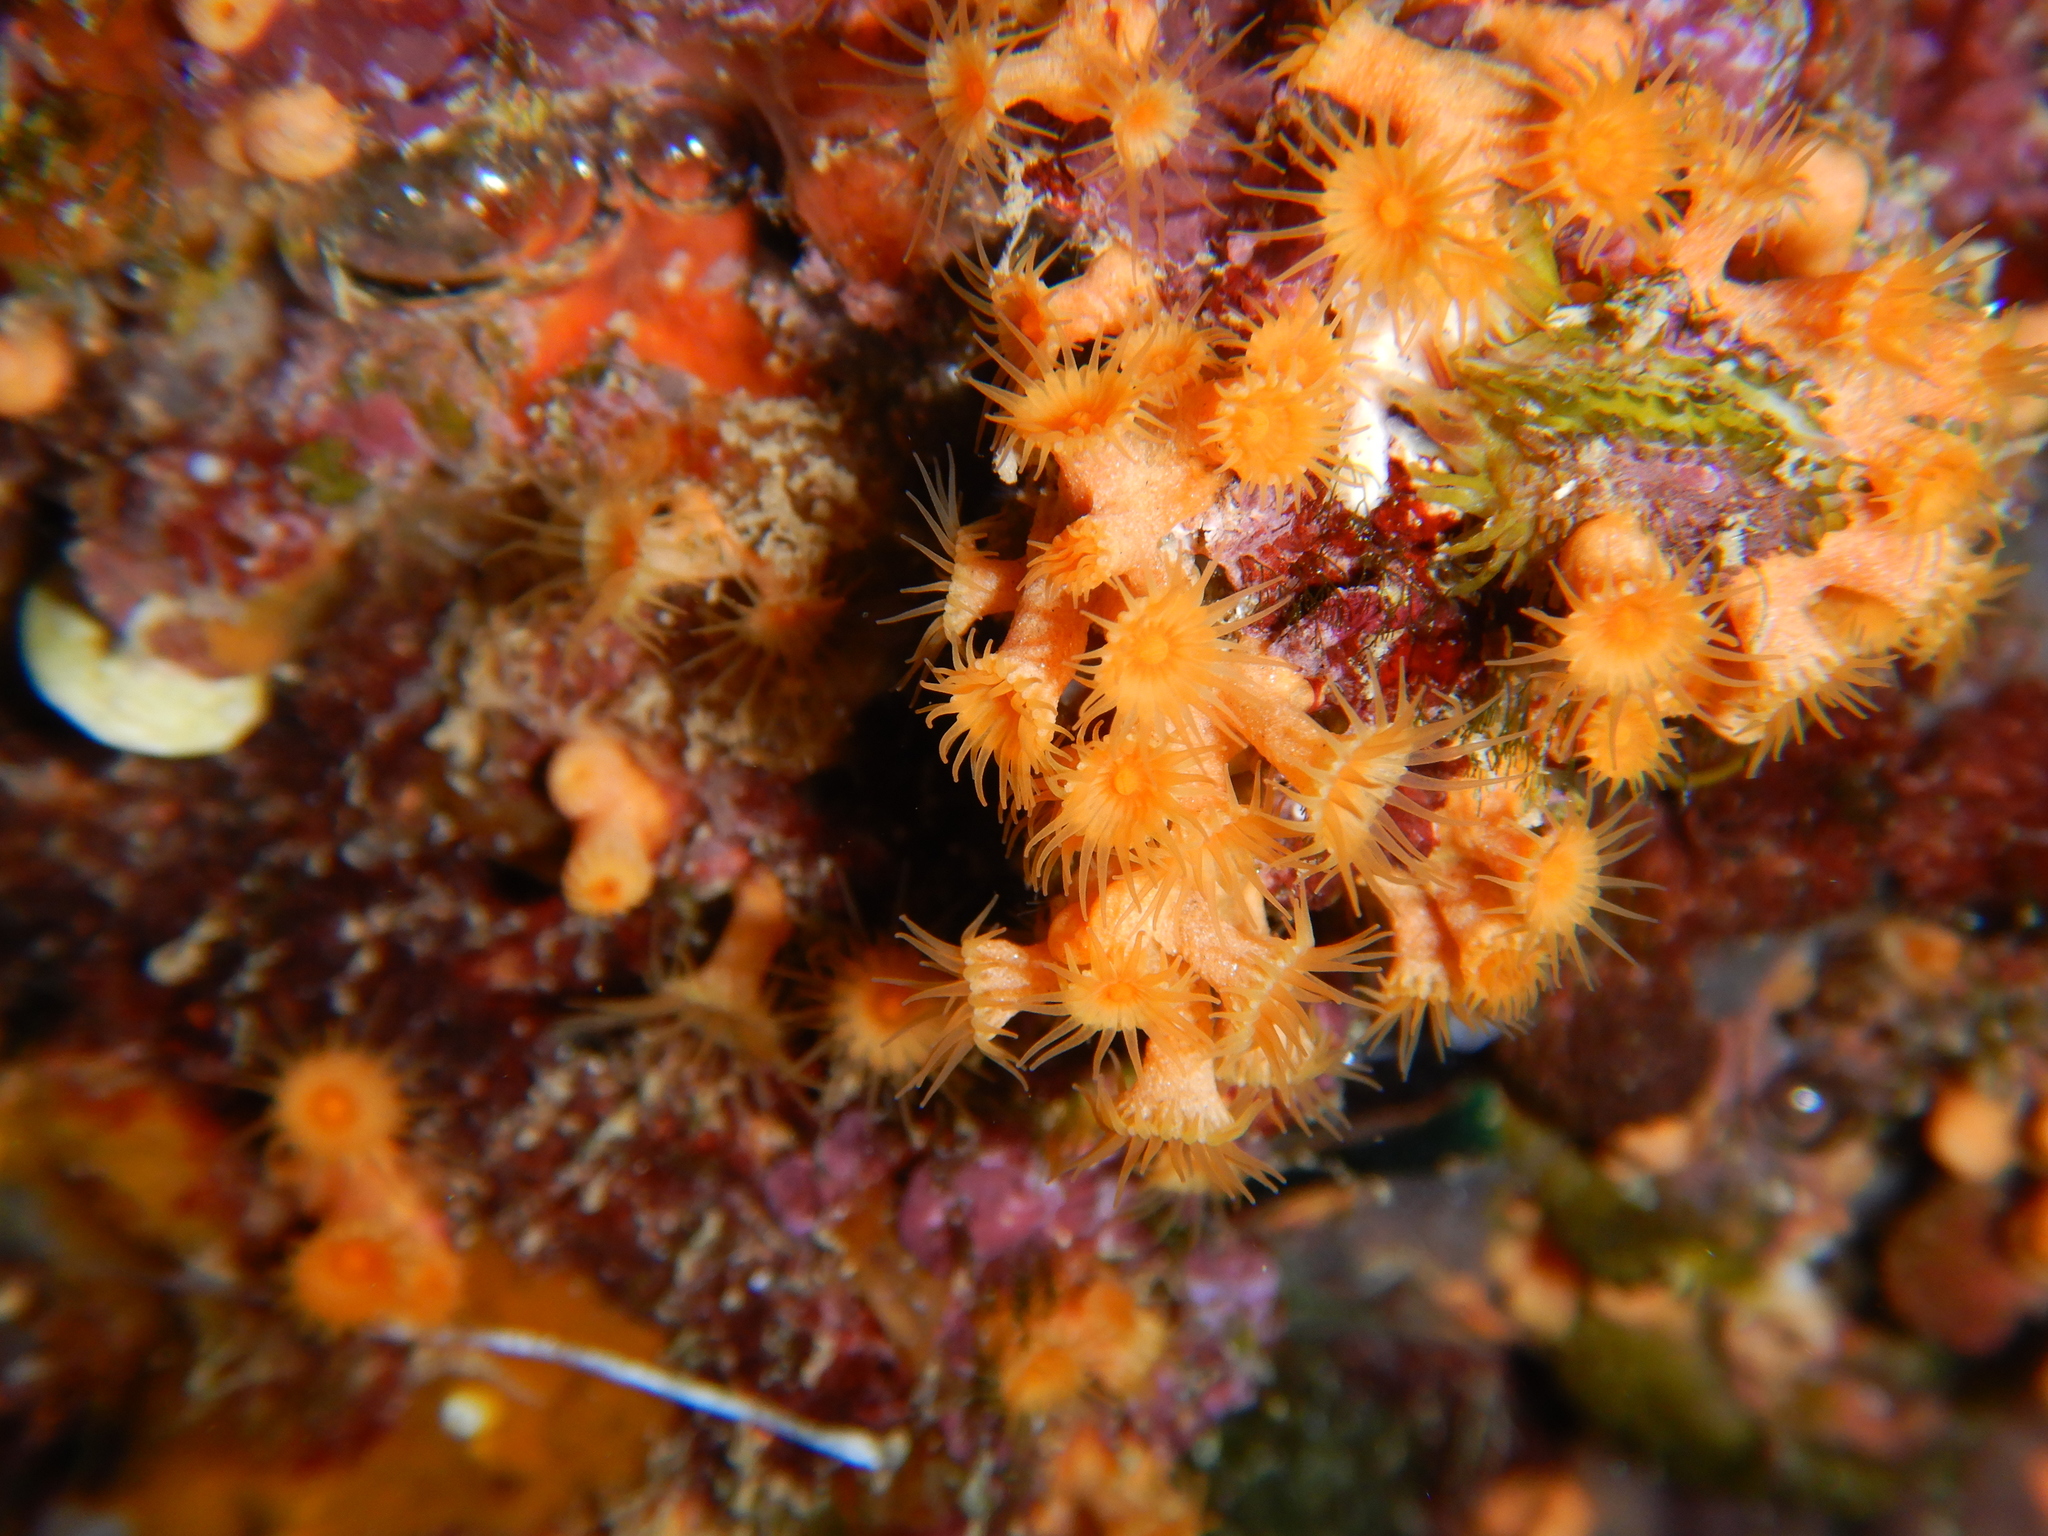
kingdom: Animalia
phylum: Cnidaria
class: Anthozoa
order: Zoantharia
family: Parazoanthidae
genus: Parazoanthus
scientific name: Parazoanthus axinellae
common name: Yellow cluster anemone
